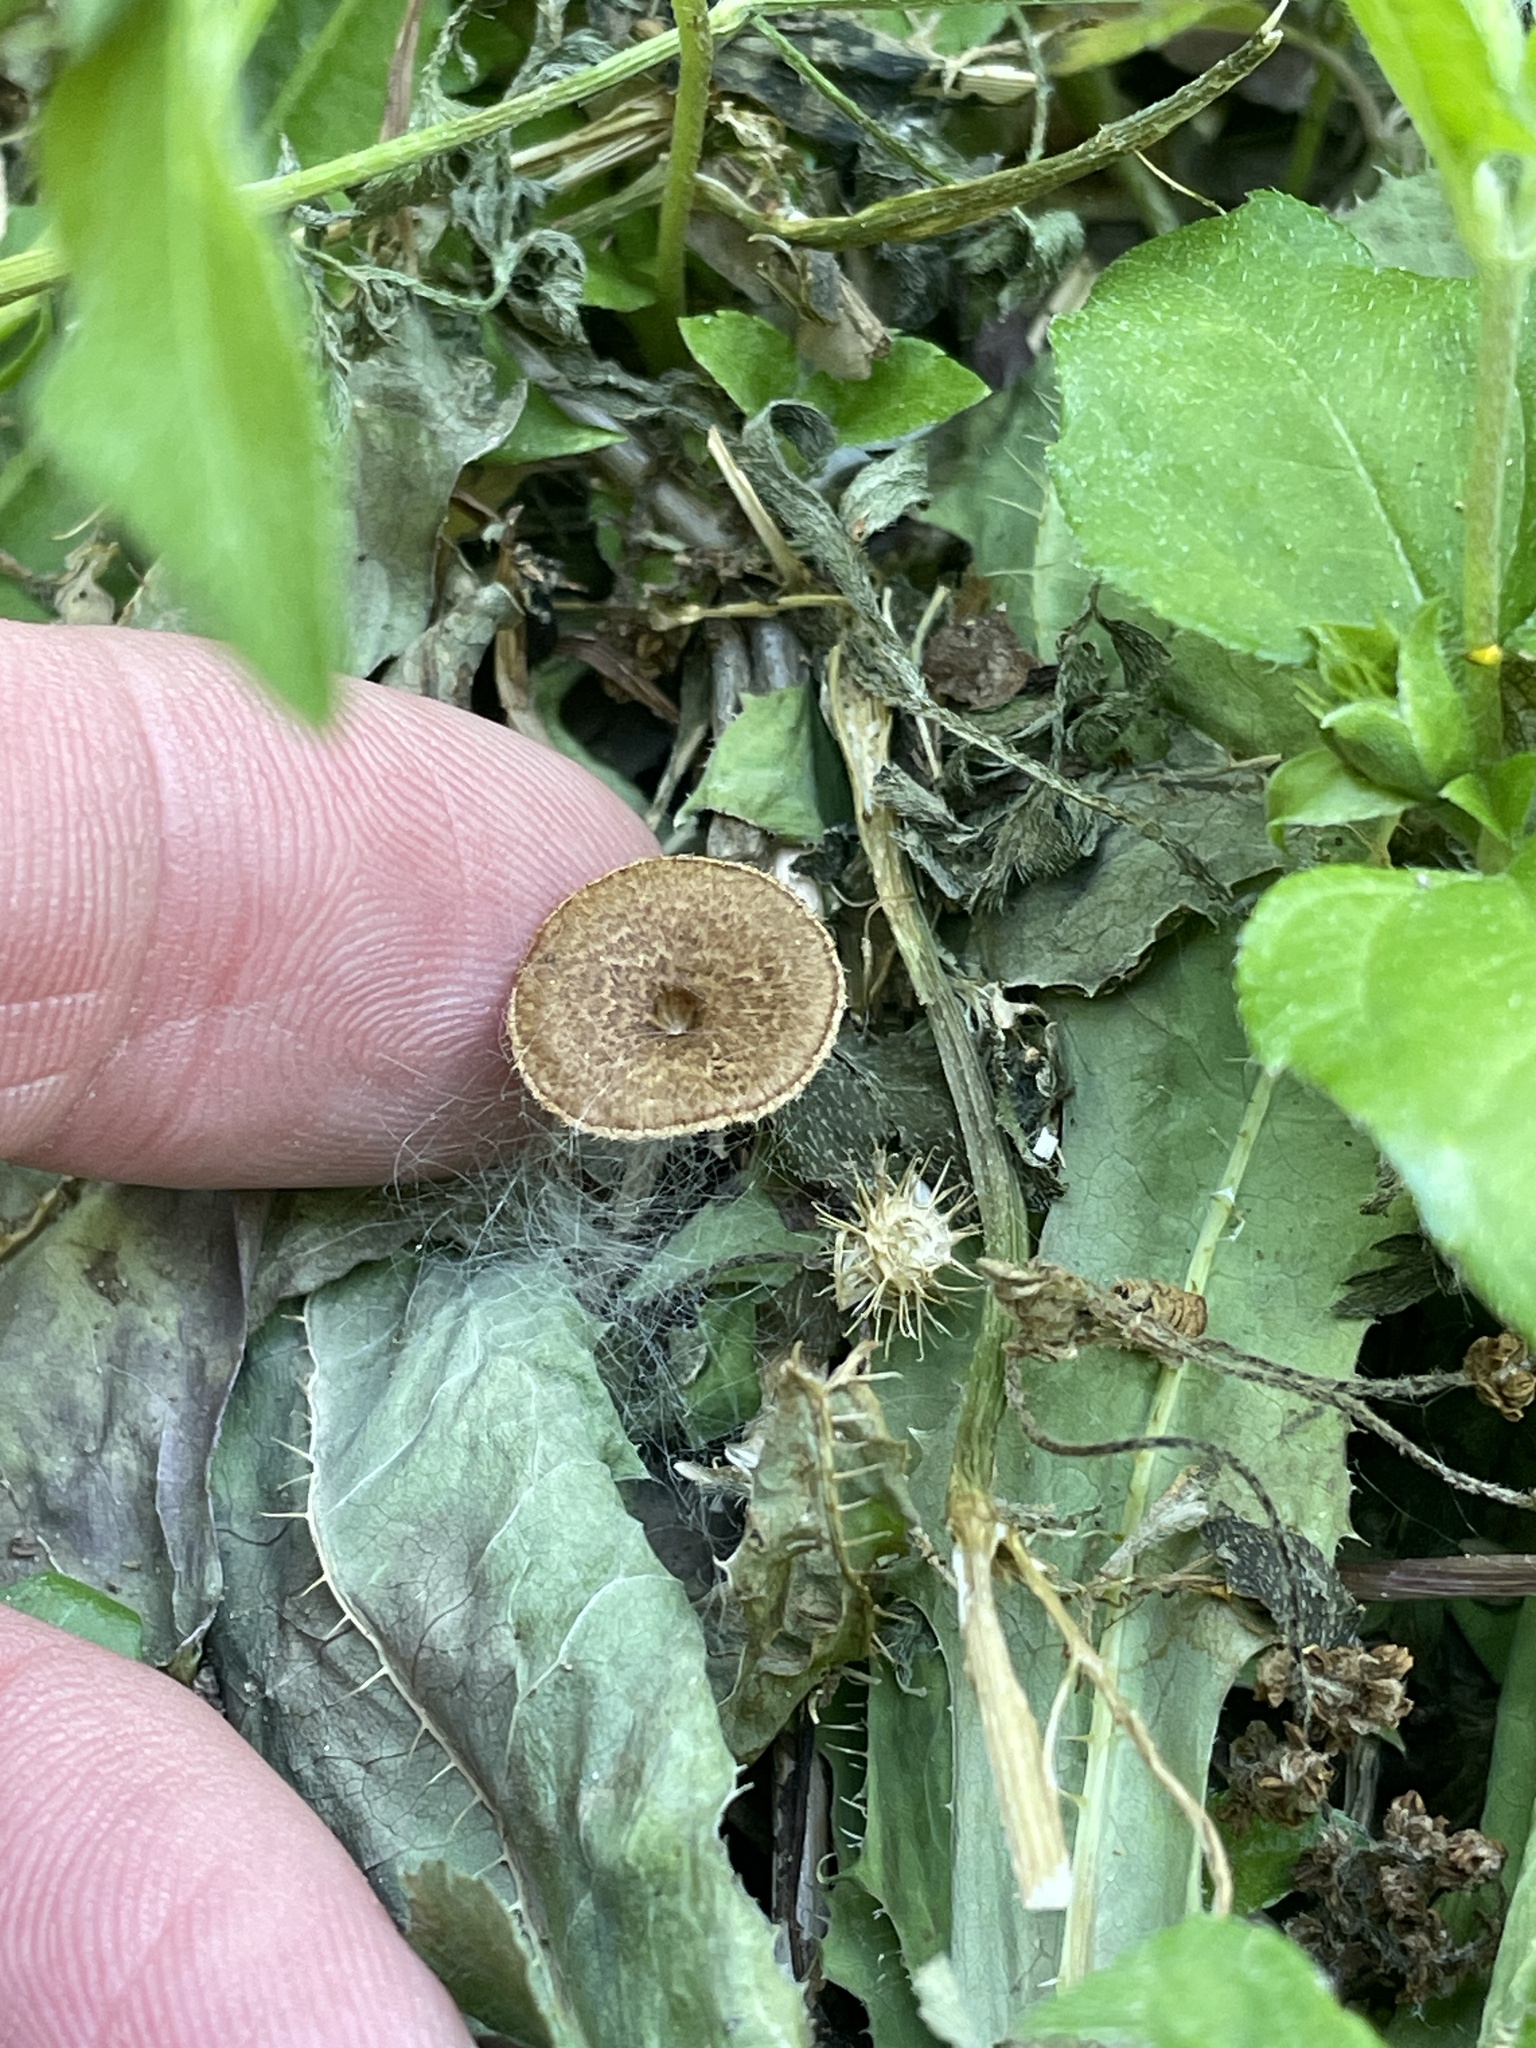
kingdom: Fungi
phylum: Basidiomycota
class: Agaricomycetes
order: Polyporales
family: Polyporaceae
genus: Lentinus
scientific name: Lentinus arcularius
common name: Spring polypore
